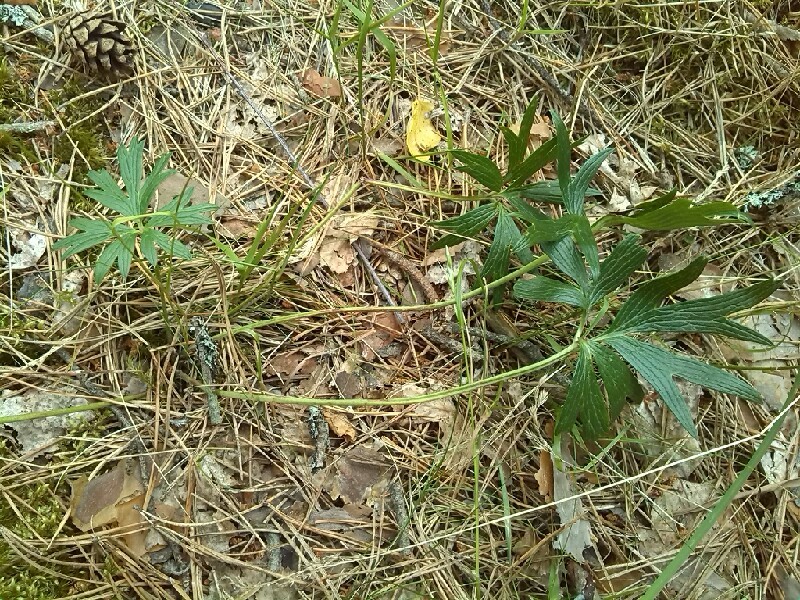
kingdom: Plantae
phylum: Tracheophyta
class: Magnoliopsida
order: Ranunculales
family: Ranunculaceae
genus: Pulsatilla
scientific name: Pulsatilla patens
